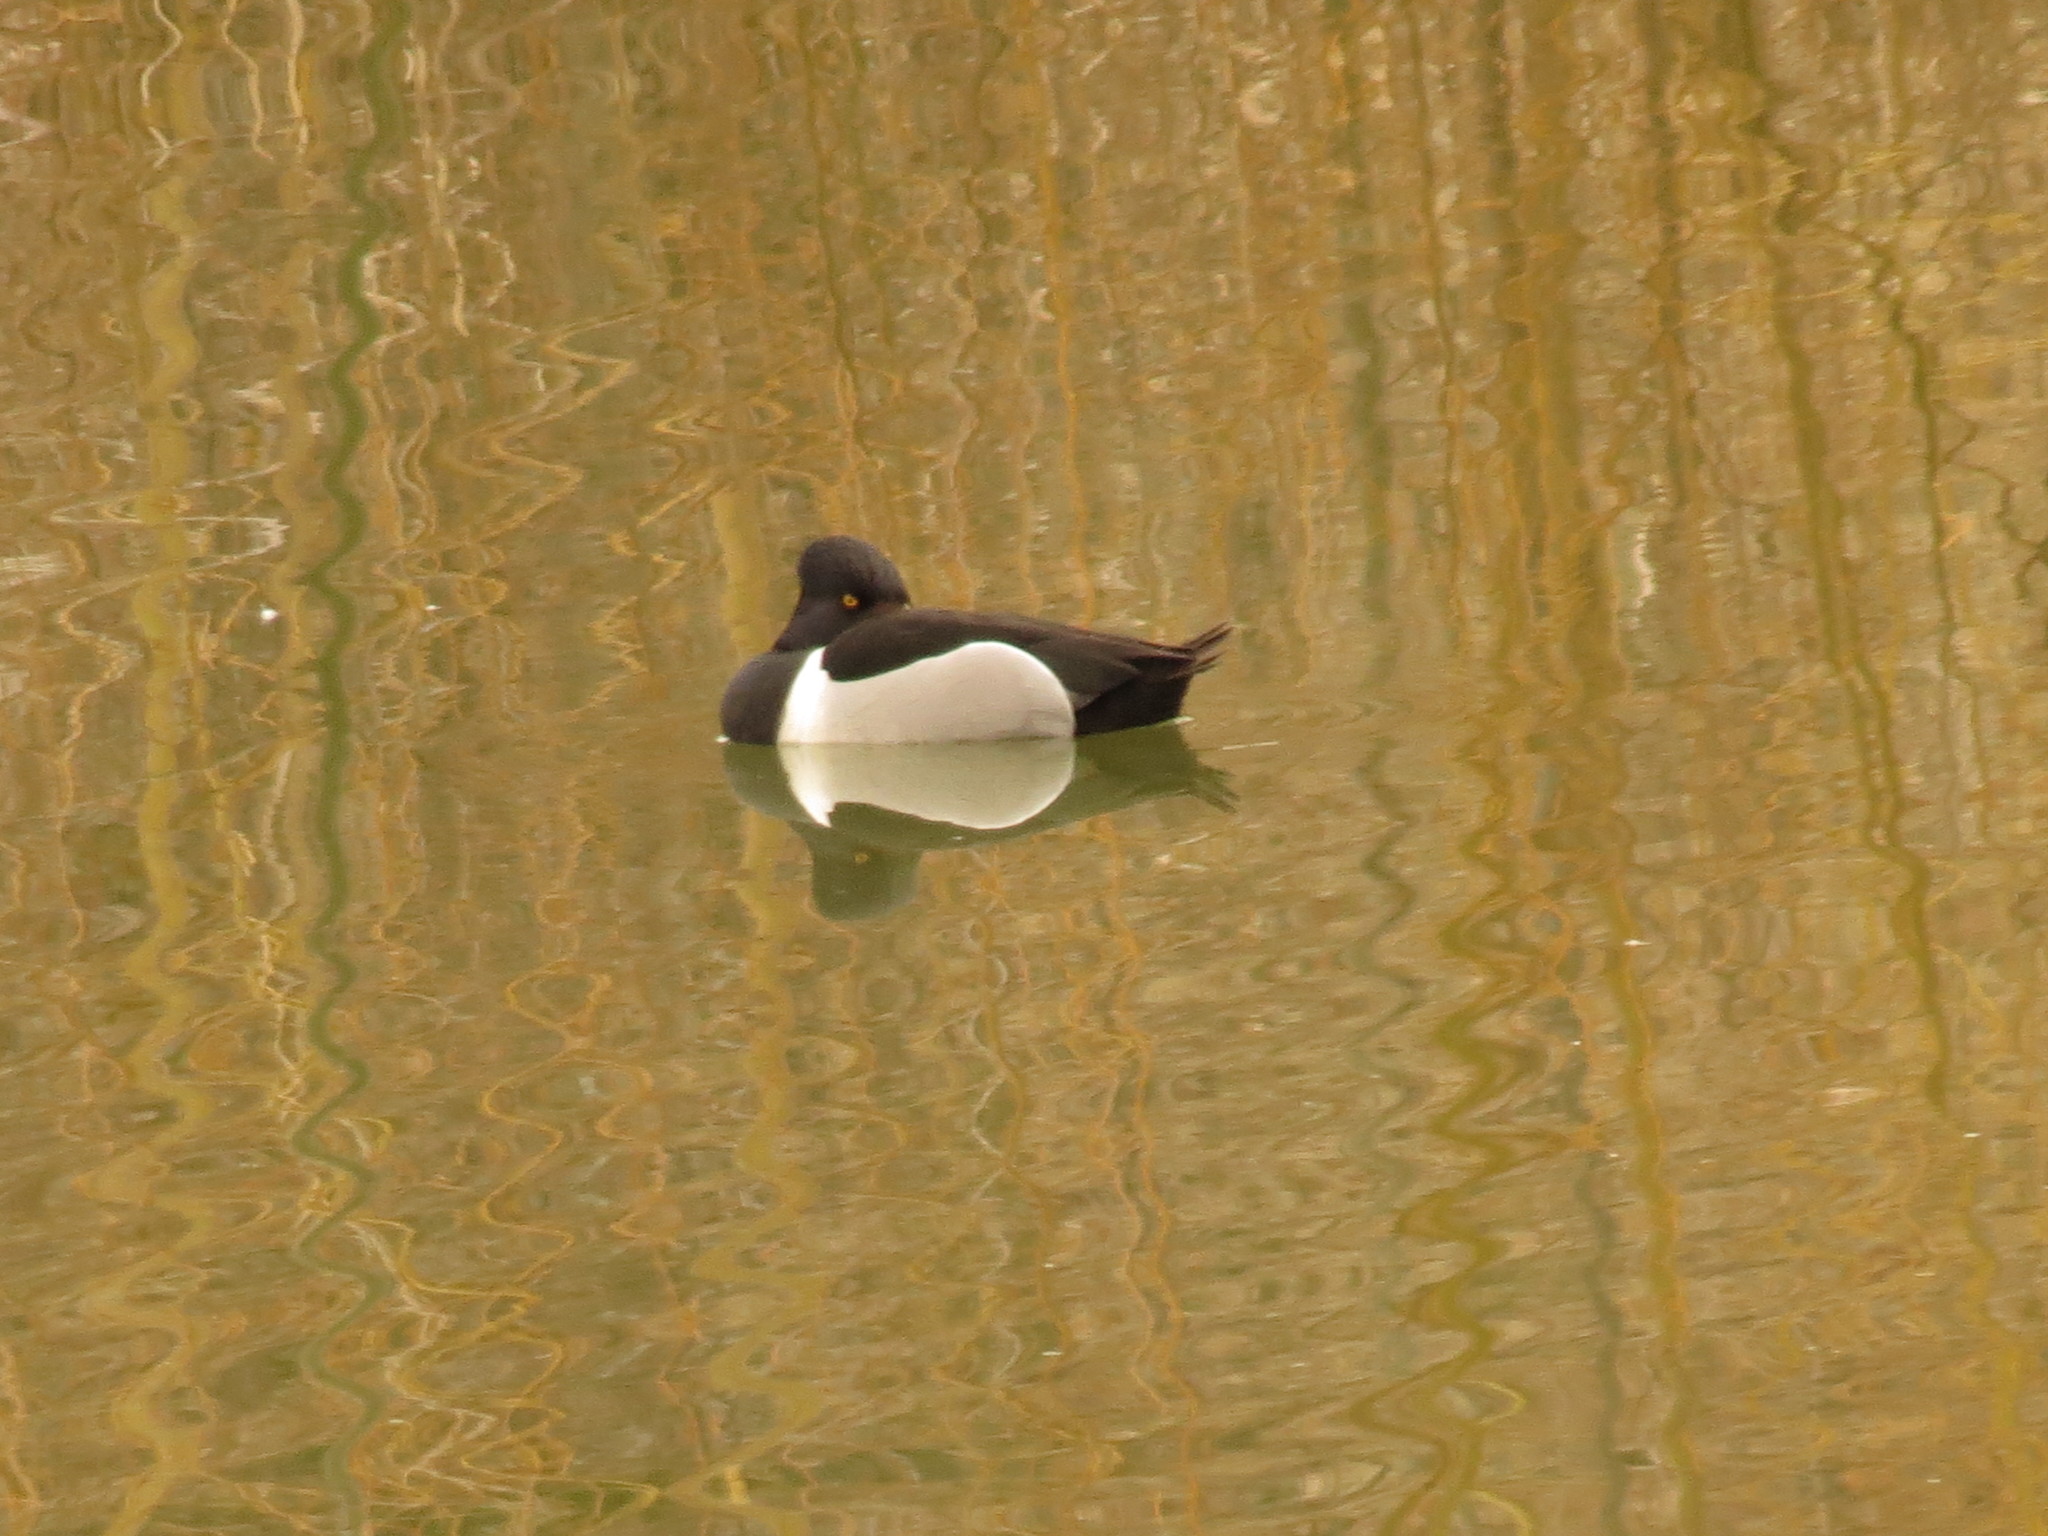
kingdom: Animalia
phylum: Chordata
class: Aves
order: Anseriformes
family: Anatidae
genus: Aythya
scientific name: Aythya collaris
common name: Ring-necked duck
